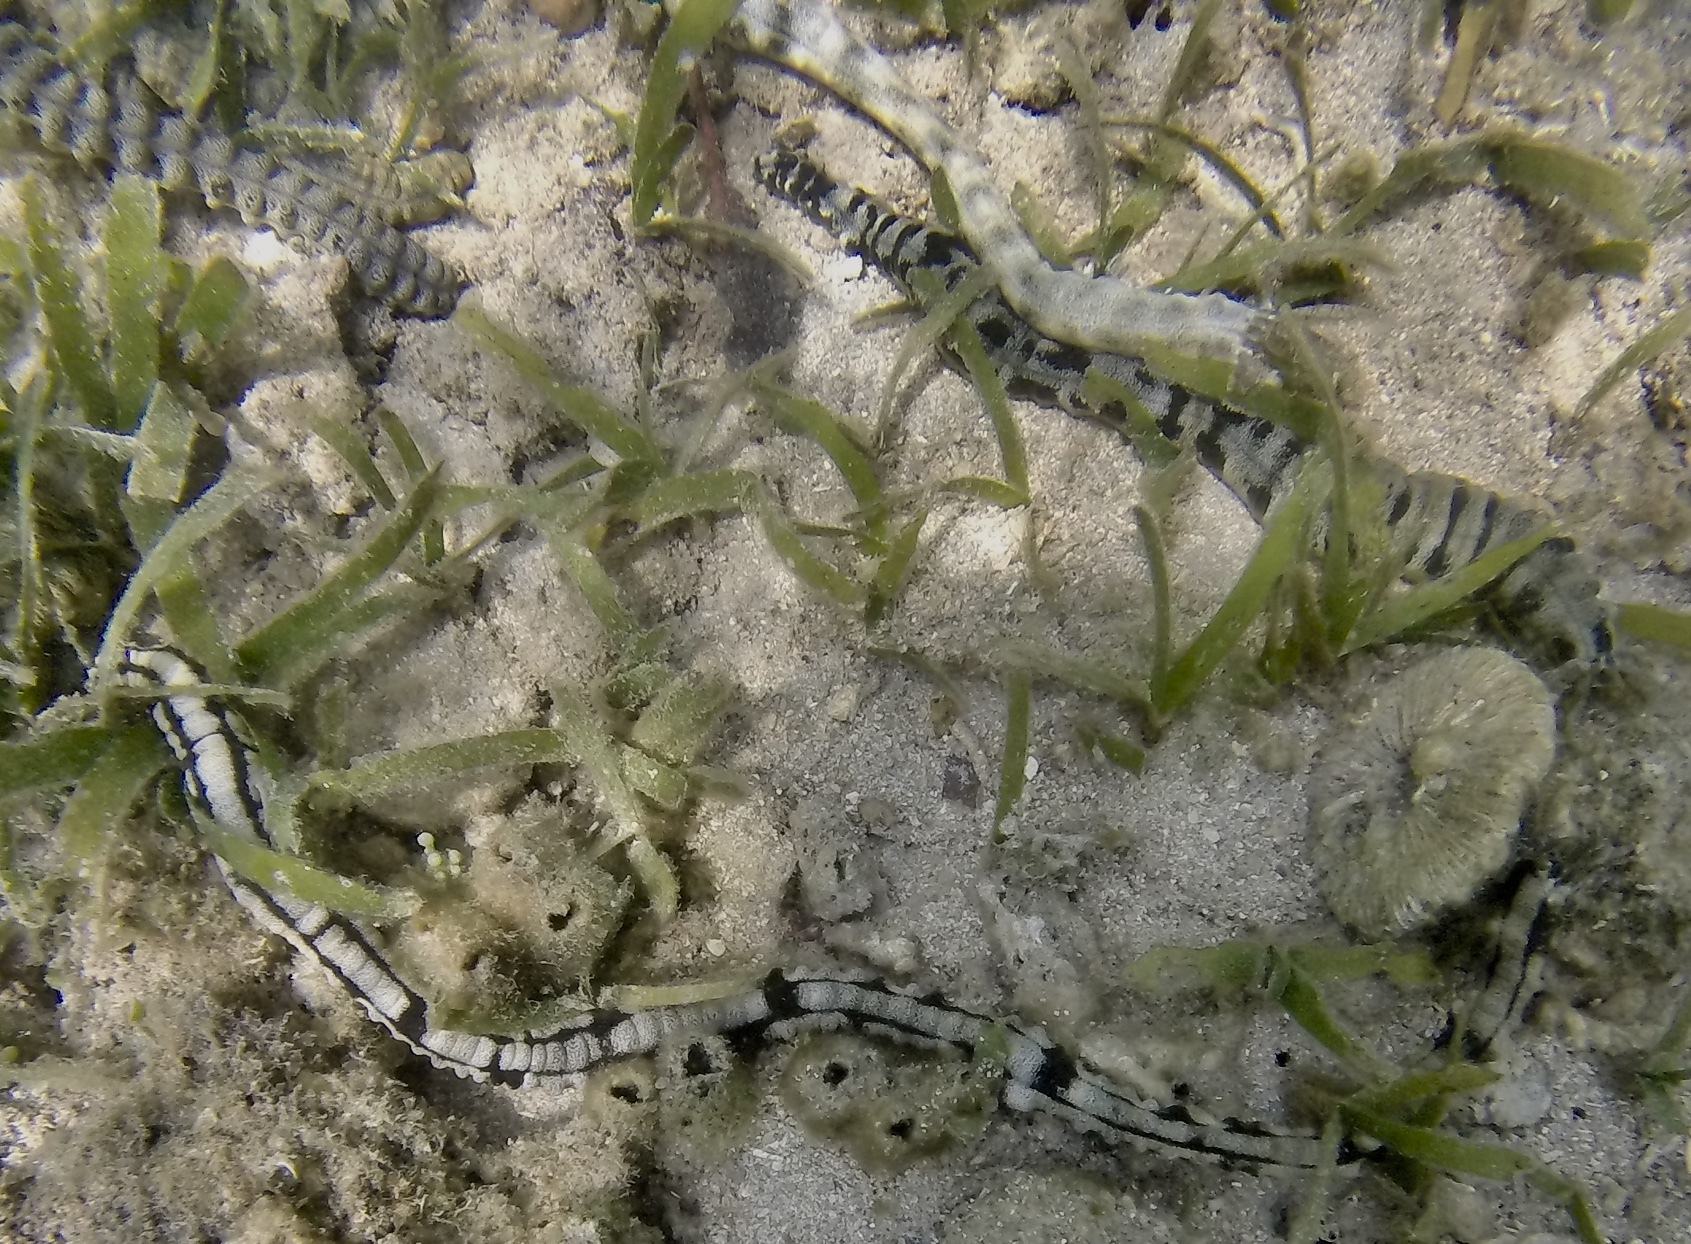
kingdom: Animalia
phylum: Echinodermata
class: Holothuroidea
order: Apodida
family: Synaptidae
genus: Euapta
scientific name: Euapta godeffroyi
